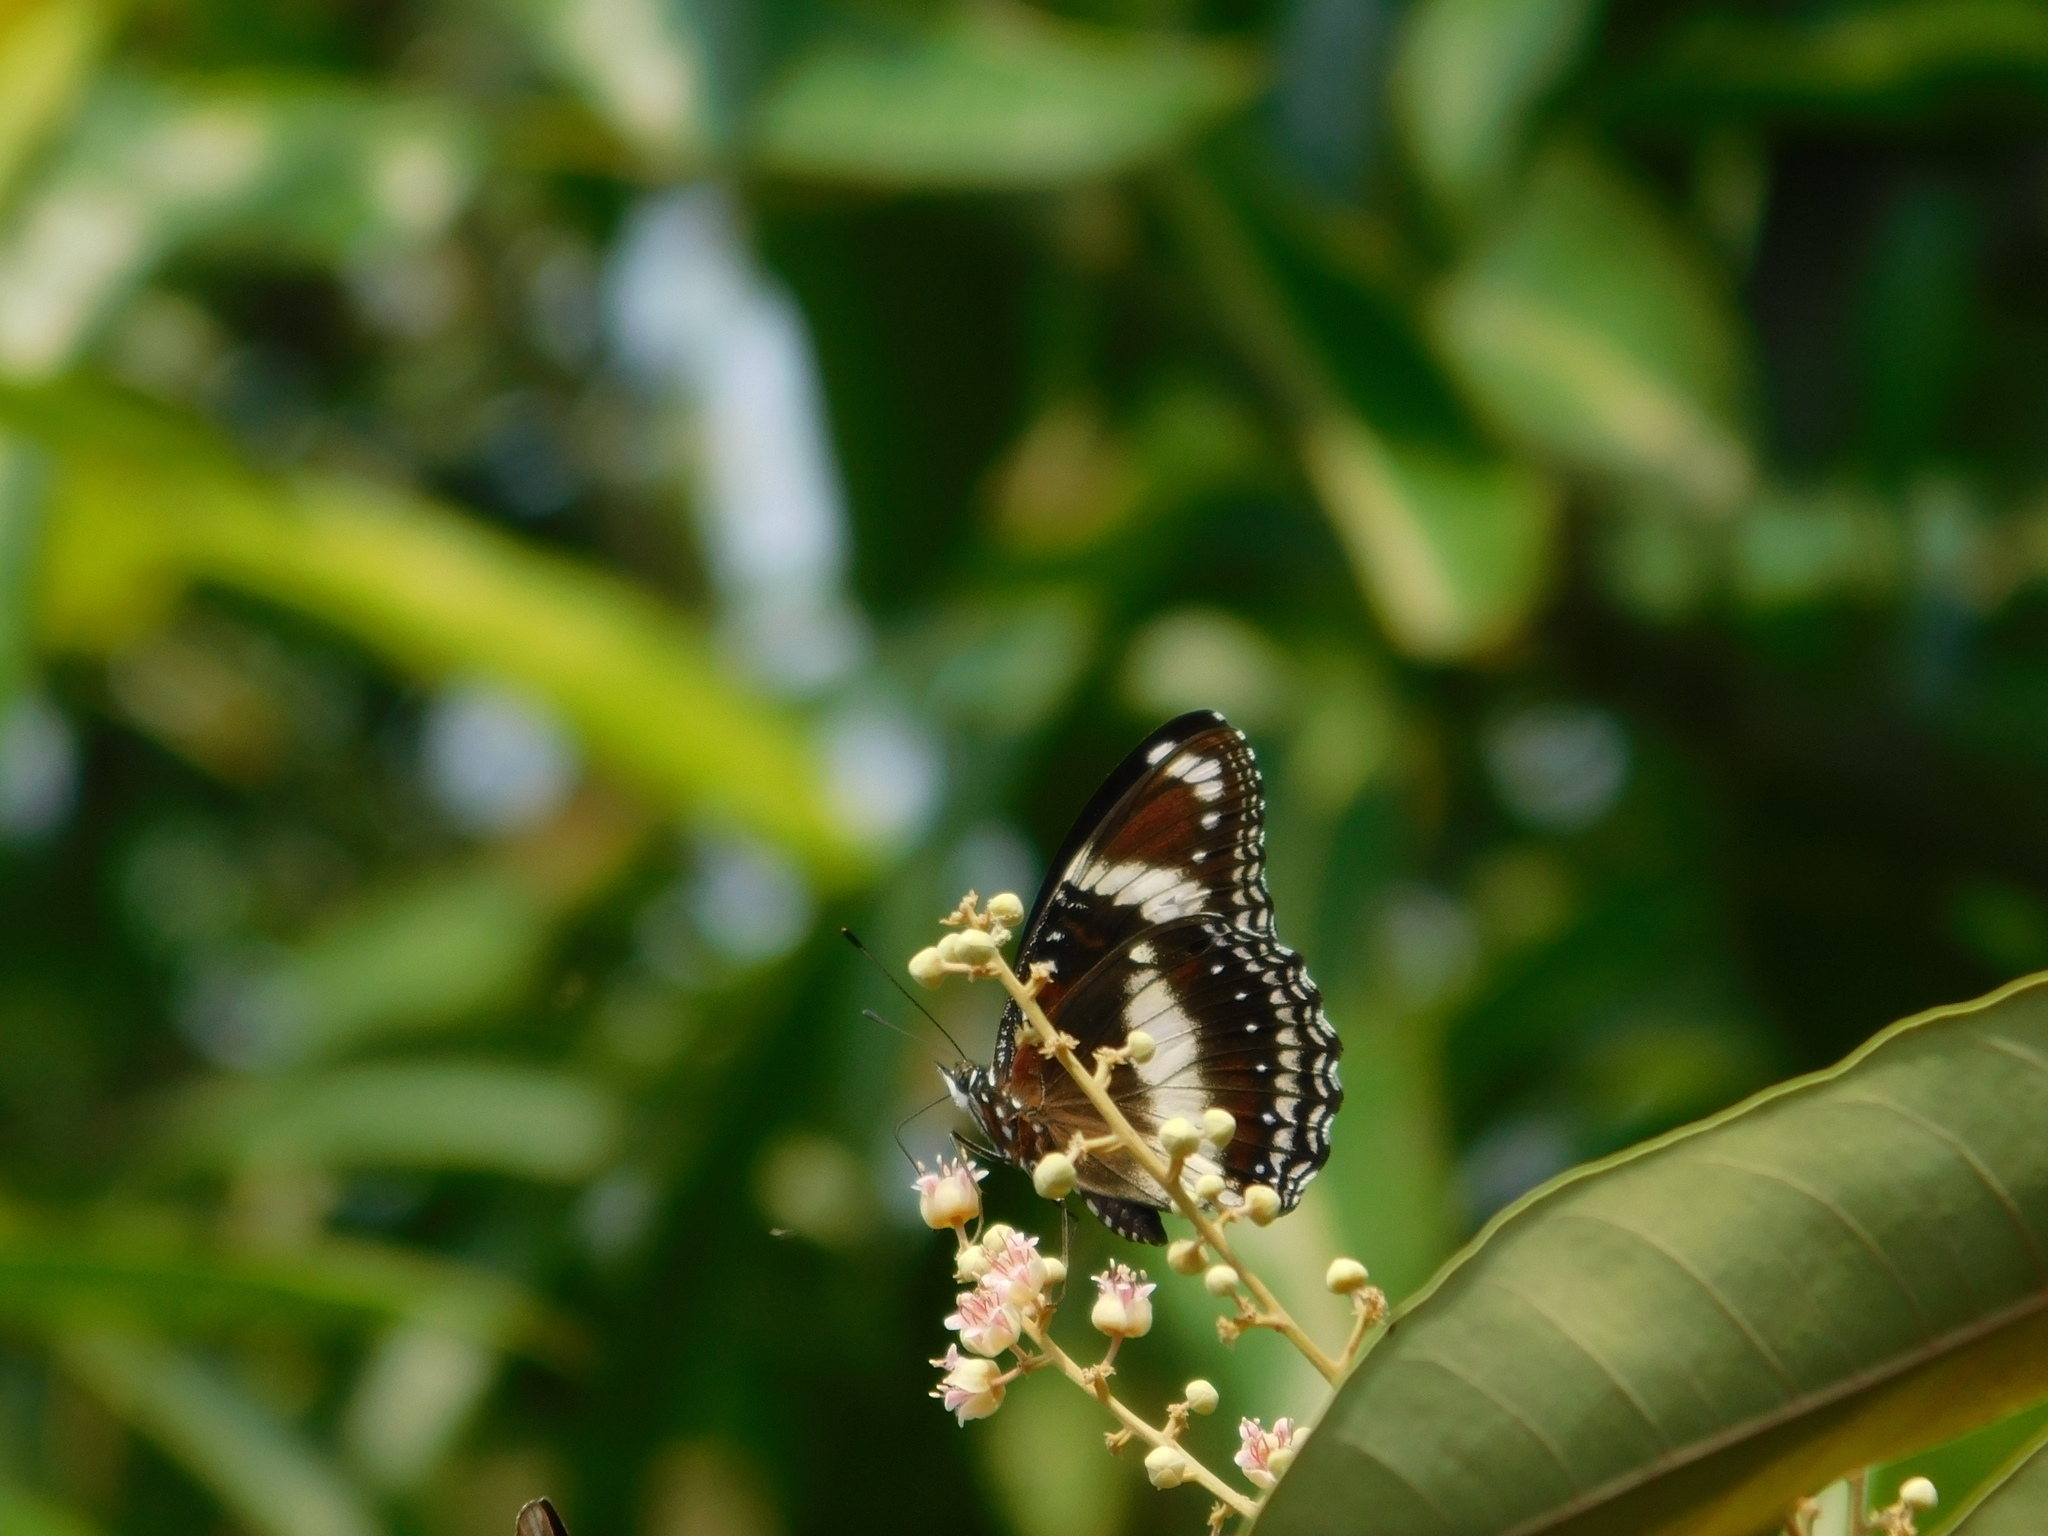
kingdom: Animalia
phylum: Arthropoda
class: Insecta
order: Lepidoptera
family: Nymphalidae
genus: Hypolimnas
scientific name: Hypolimnas bolina
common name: Great eggfly
